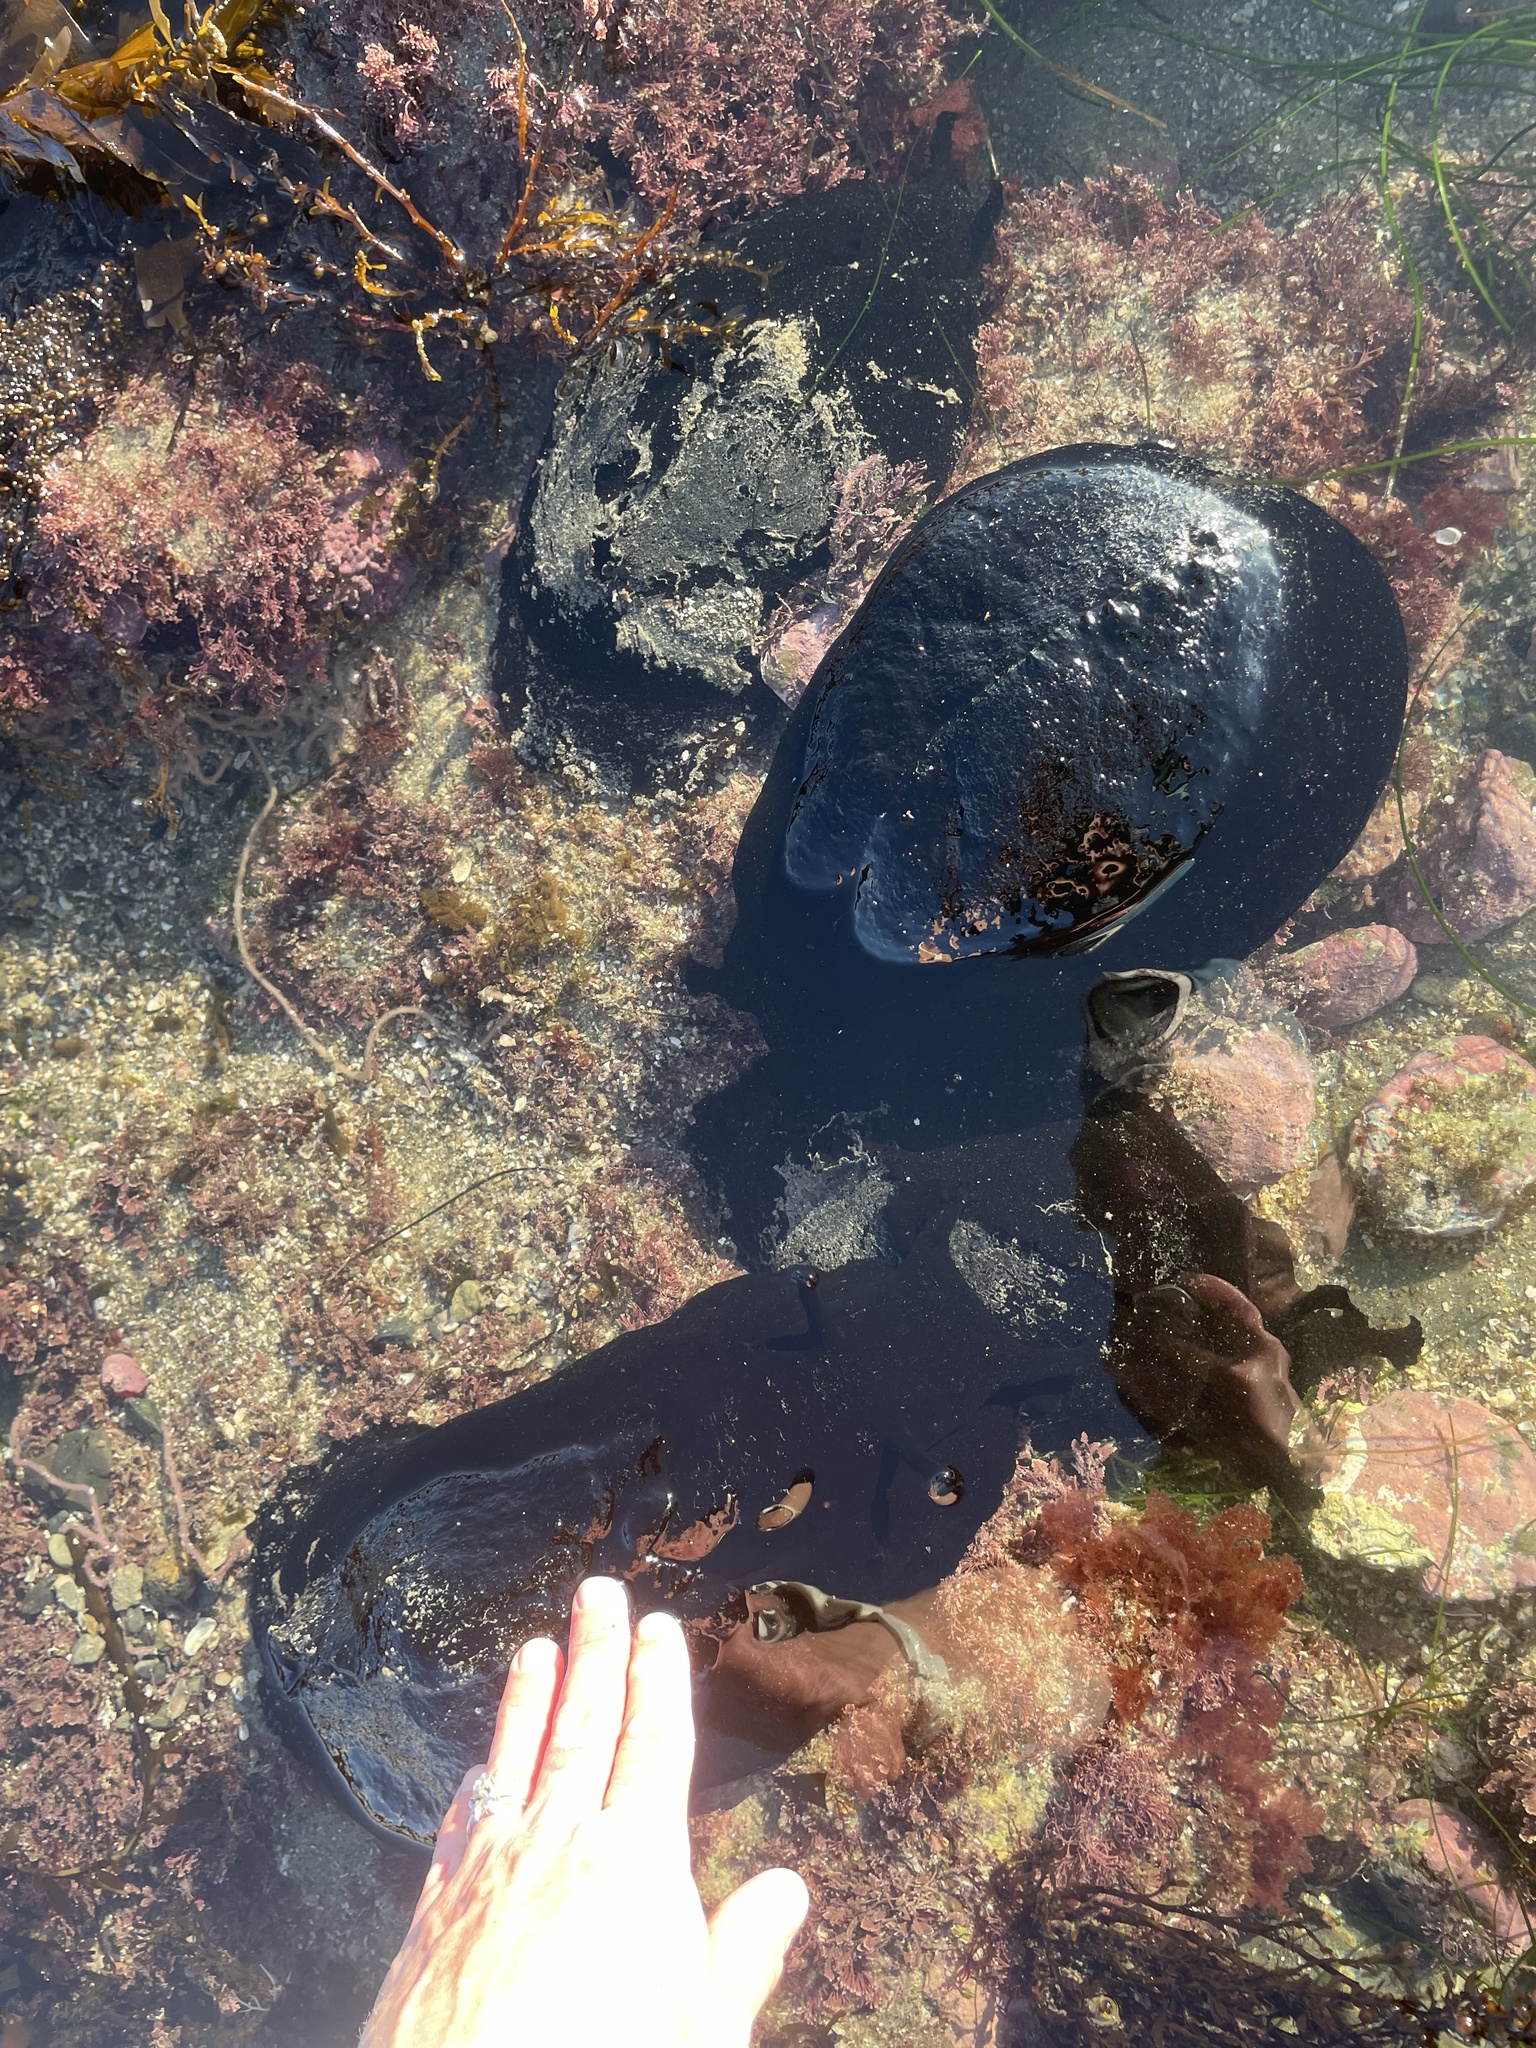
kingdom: Animalia
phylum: Mollusca
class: Gastropoda
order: Aplysiida
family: Aplysiidae
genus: Aplysia
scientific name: Aplysia vaccaria
